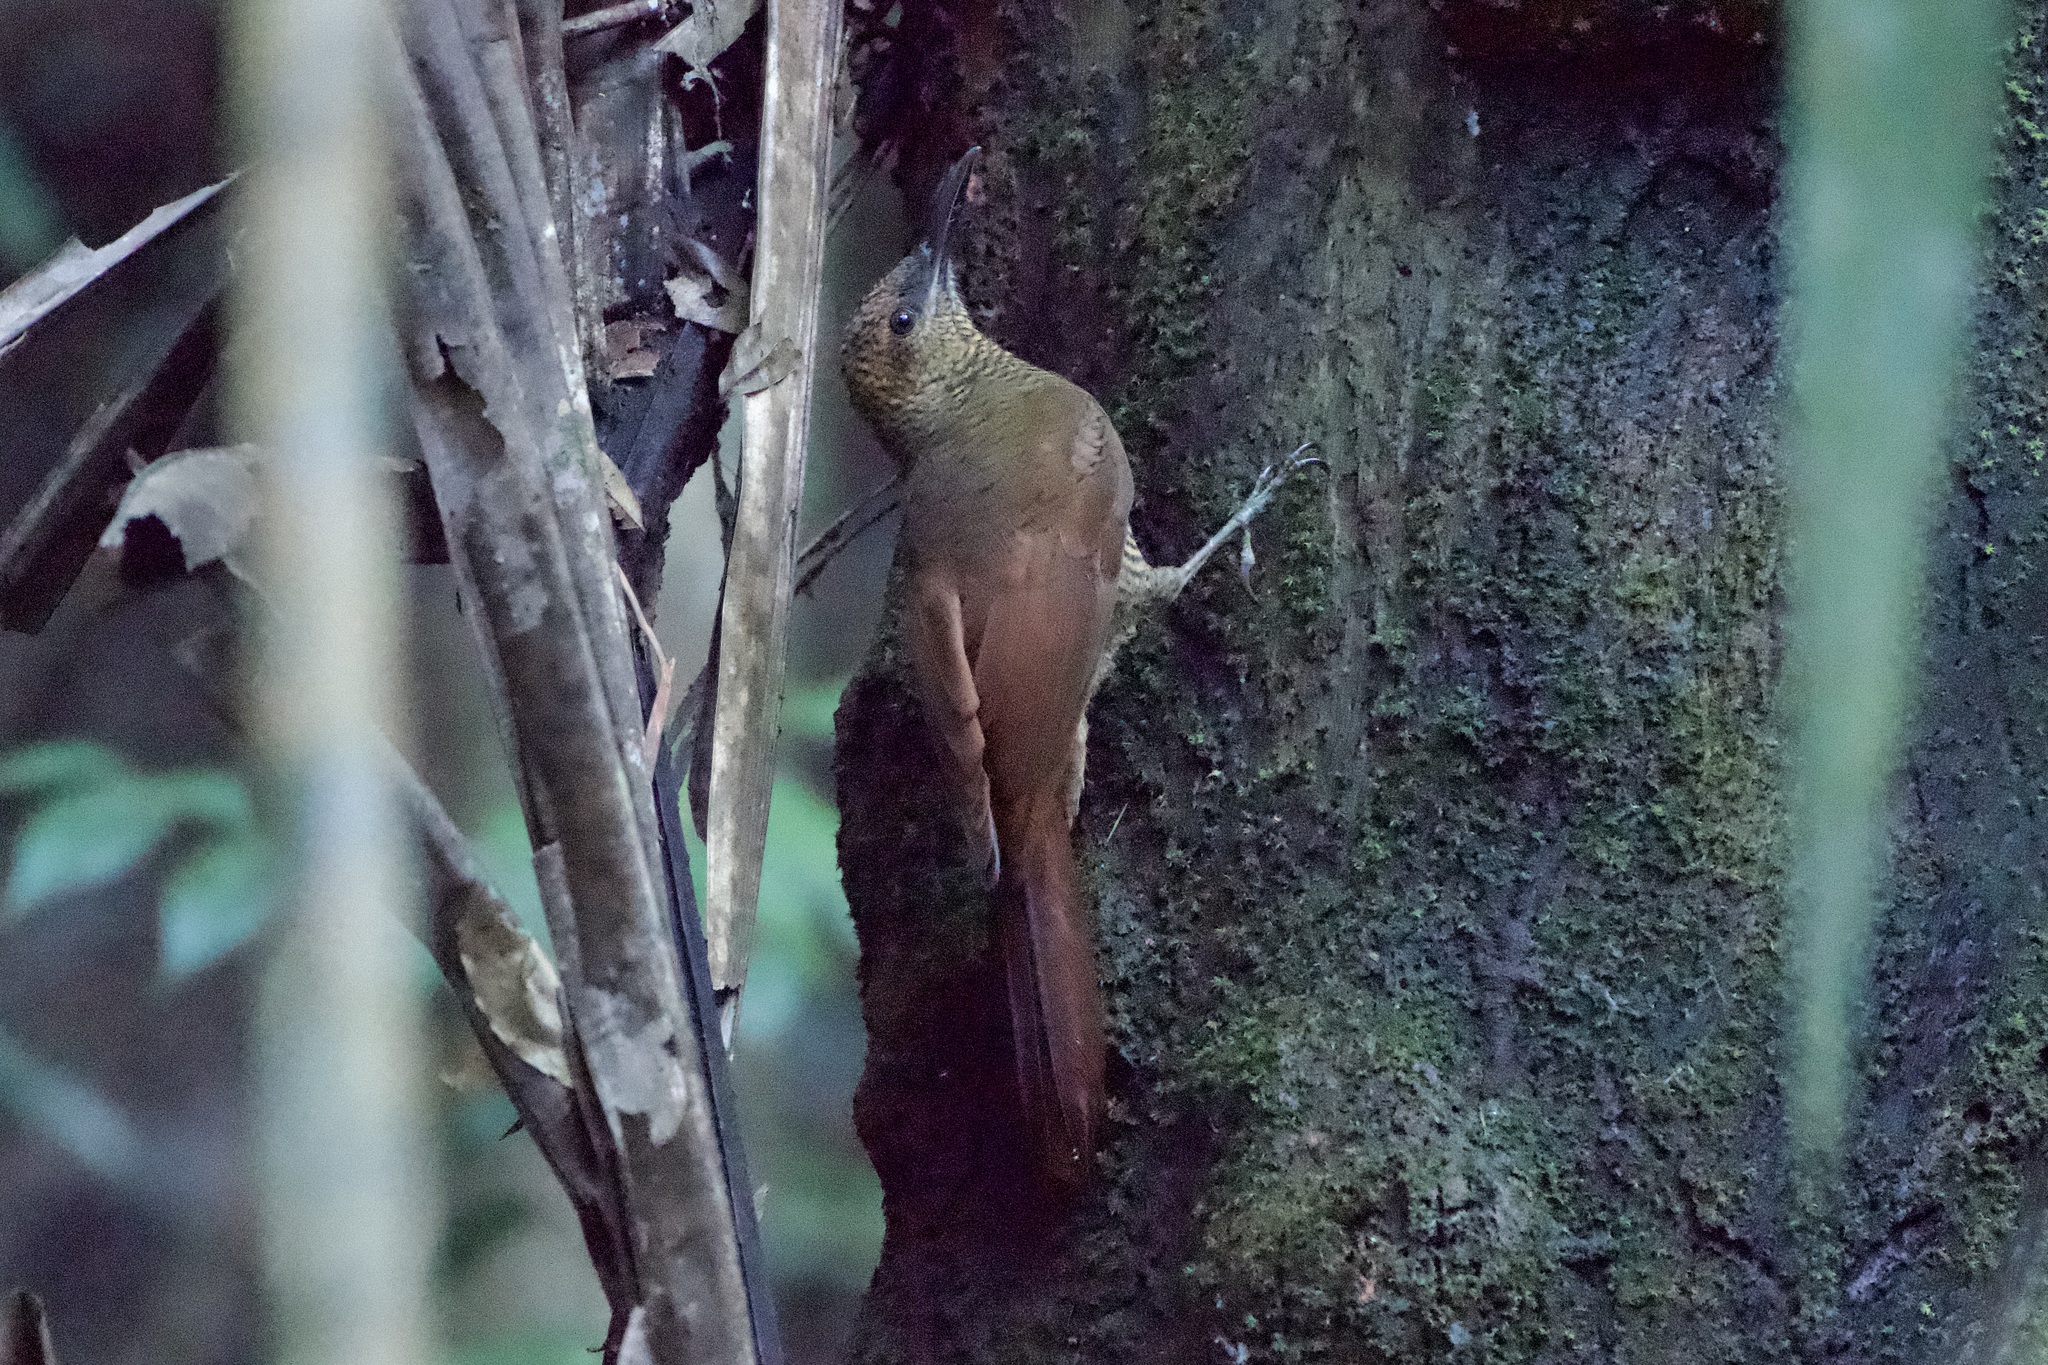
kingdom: Animalia
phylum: Chordata
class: Aves
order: Passeriformes
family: Furnariidae
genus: Dendrocolaptes
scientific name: Dendrocolaptes sanctithomae
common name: Northern barred-woodcreeper
